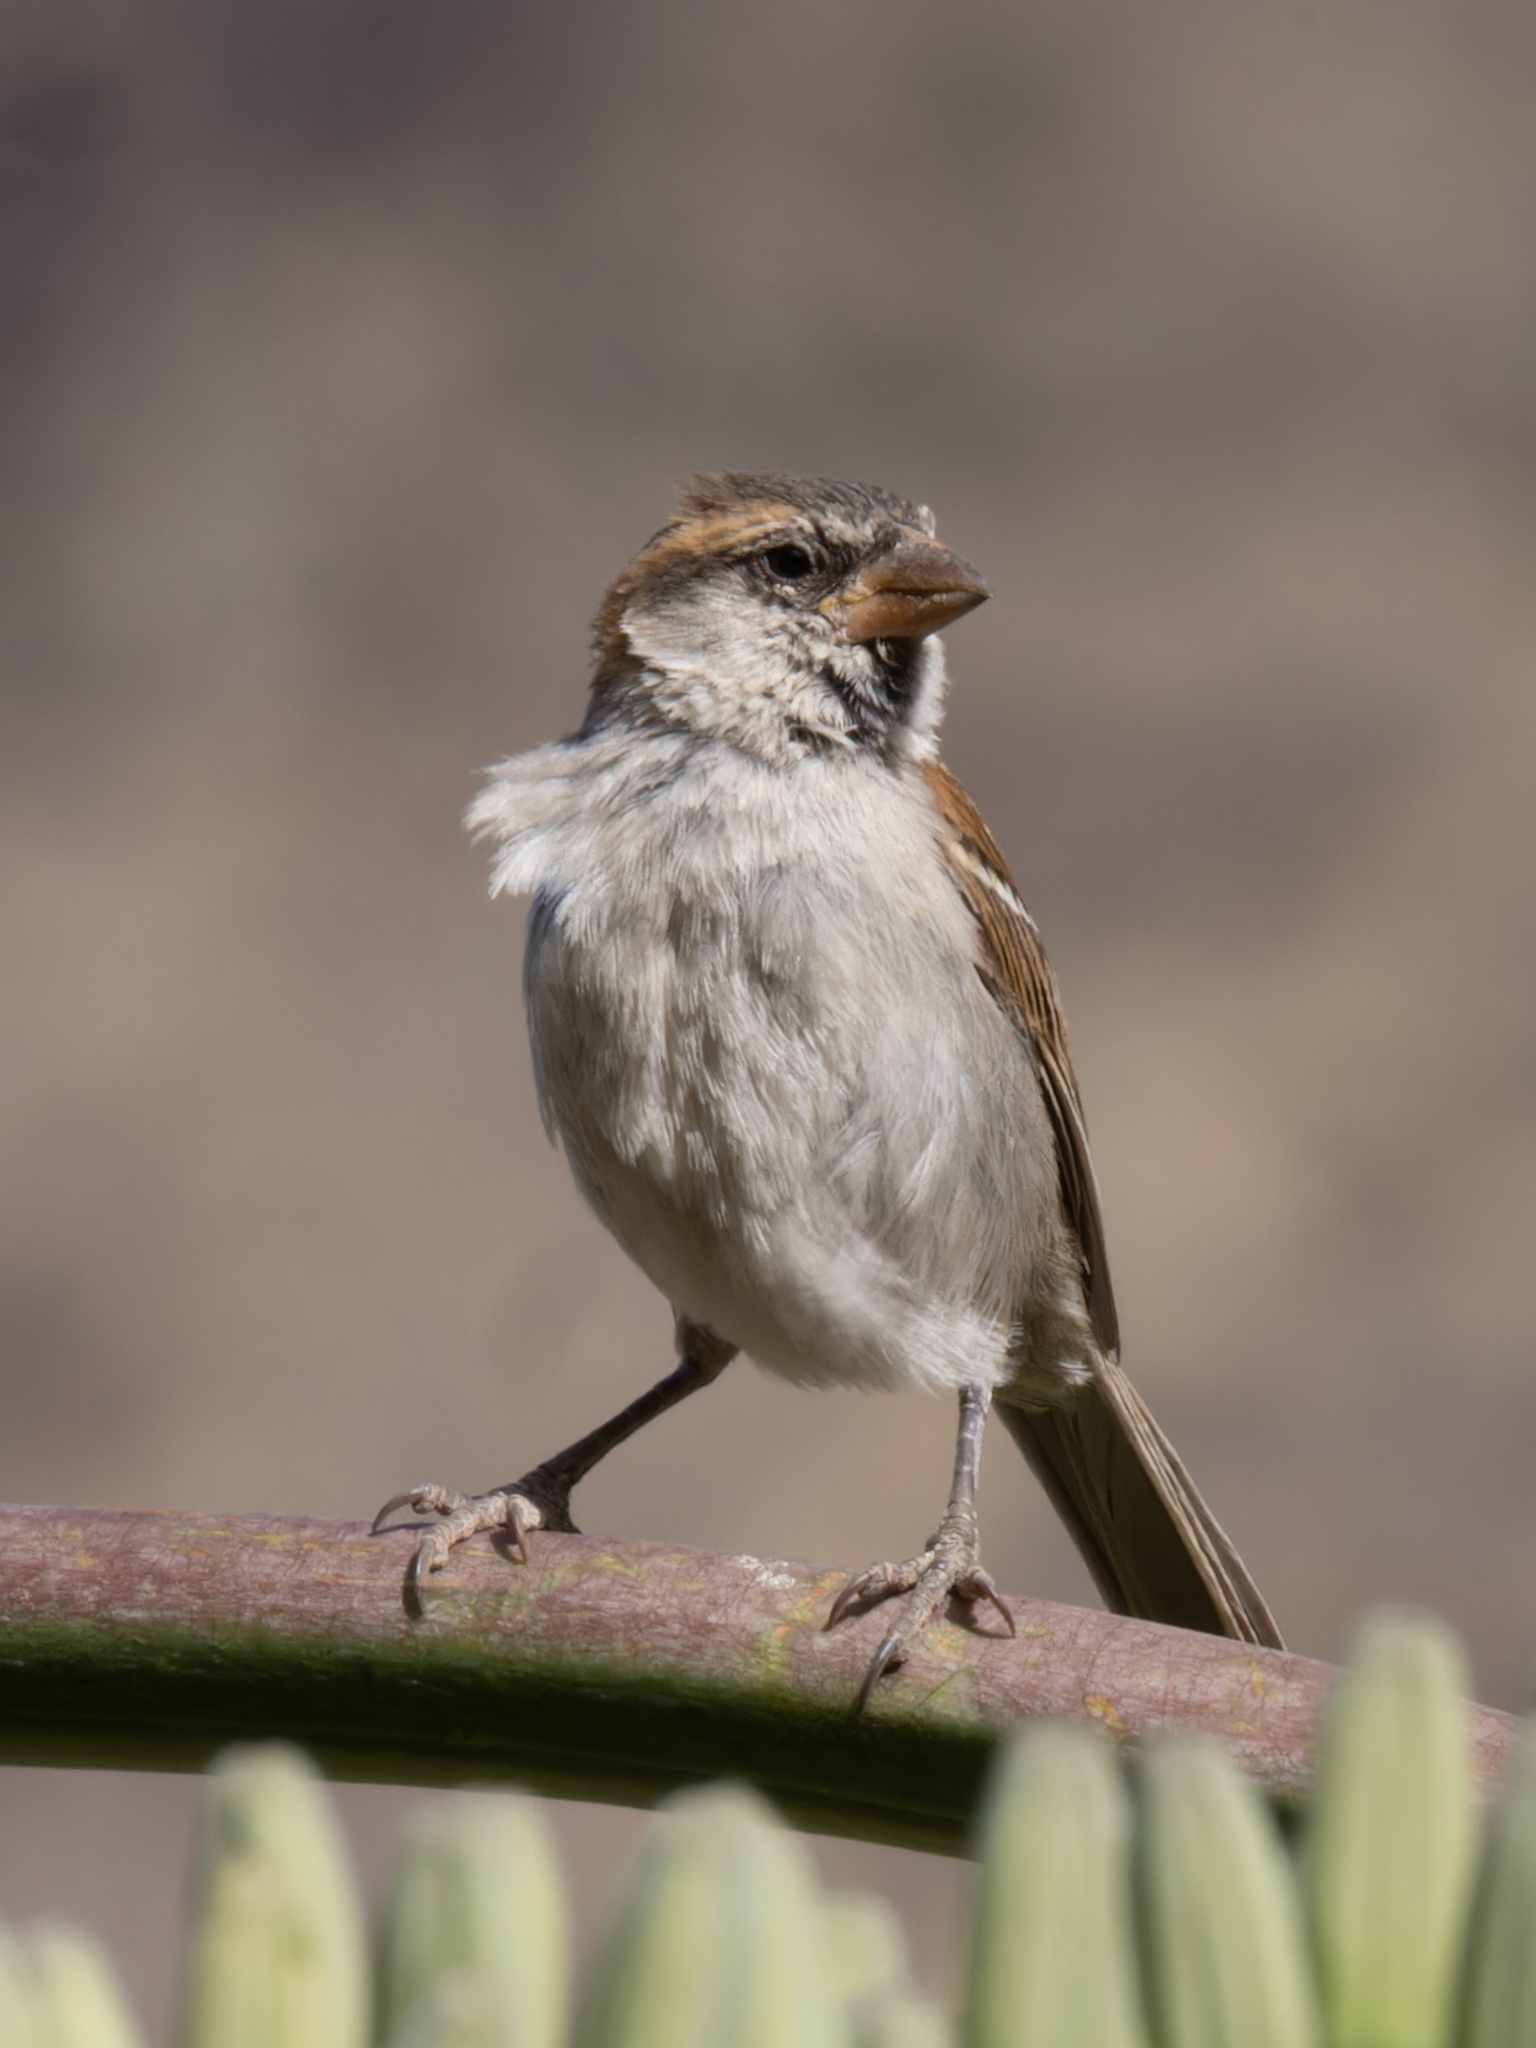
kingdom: Animalia
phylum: Chordata
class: Aves
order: Passeriformes
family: Passeridae
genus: Passer
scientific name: Passer iagoensis
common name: Iago sparrow
